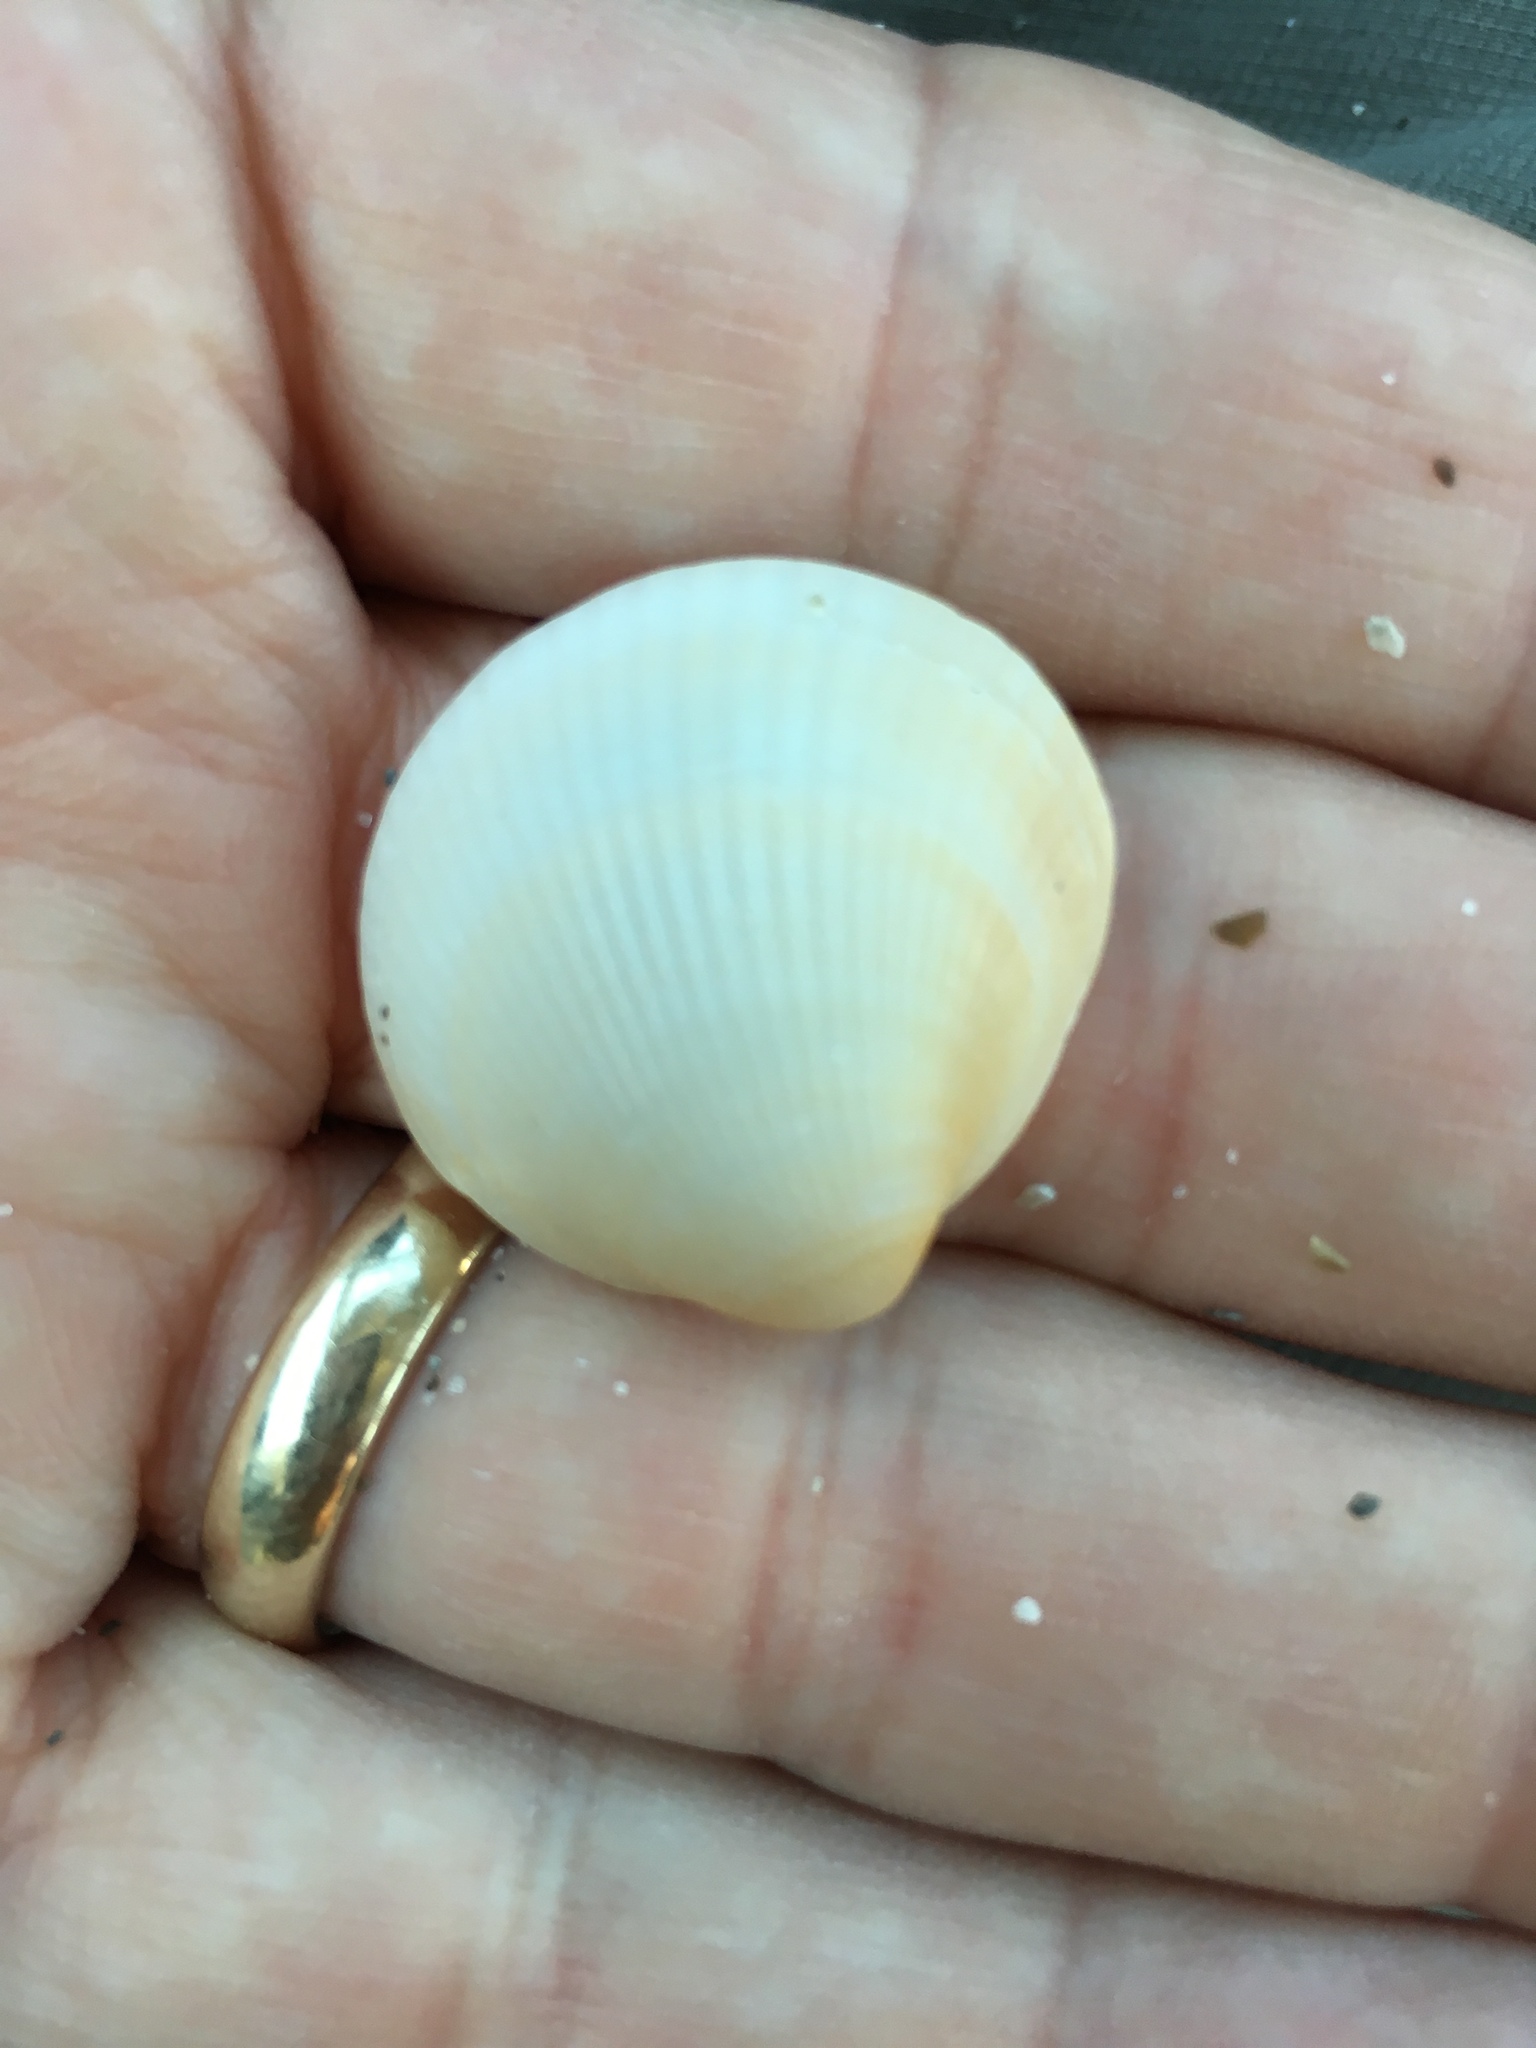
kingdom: Animalia
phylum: Mollusca
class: Bivalvia
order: Arcida
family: Glycymerididae
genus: Glycymeris
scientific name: Glycymeris spectralis
